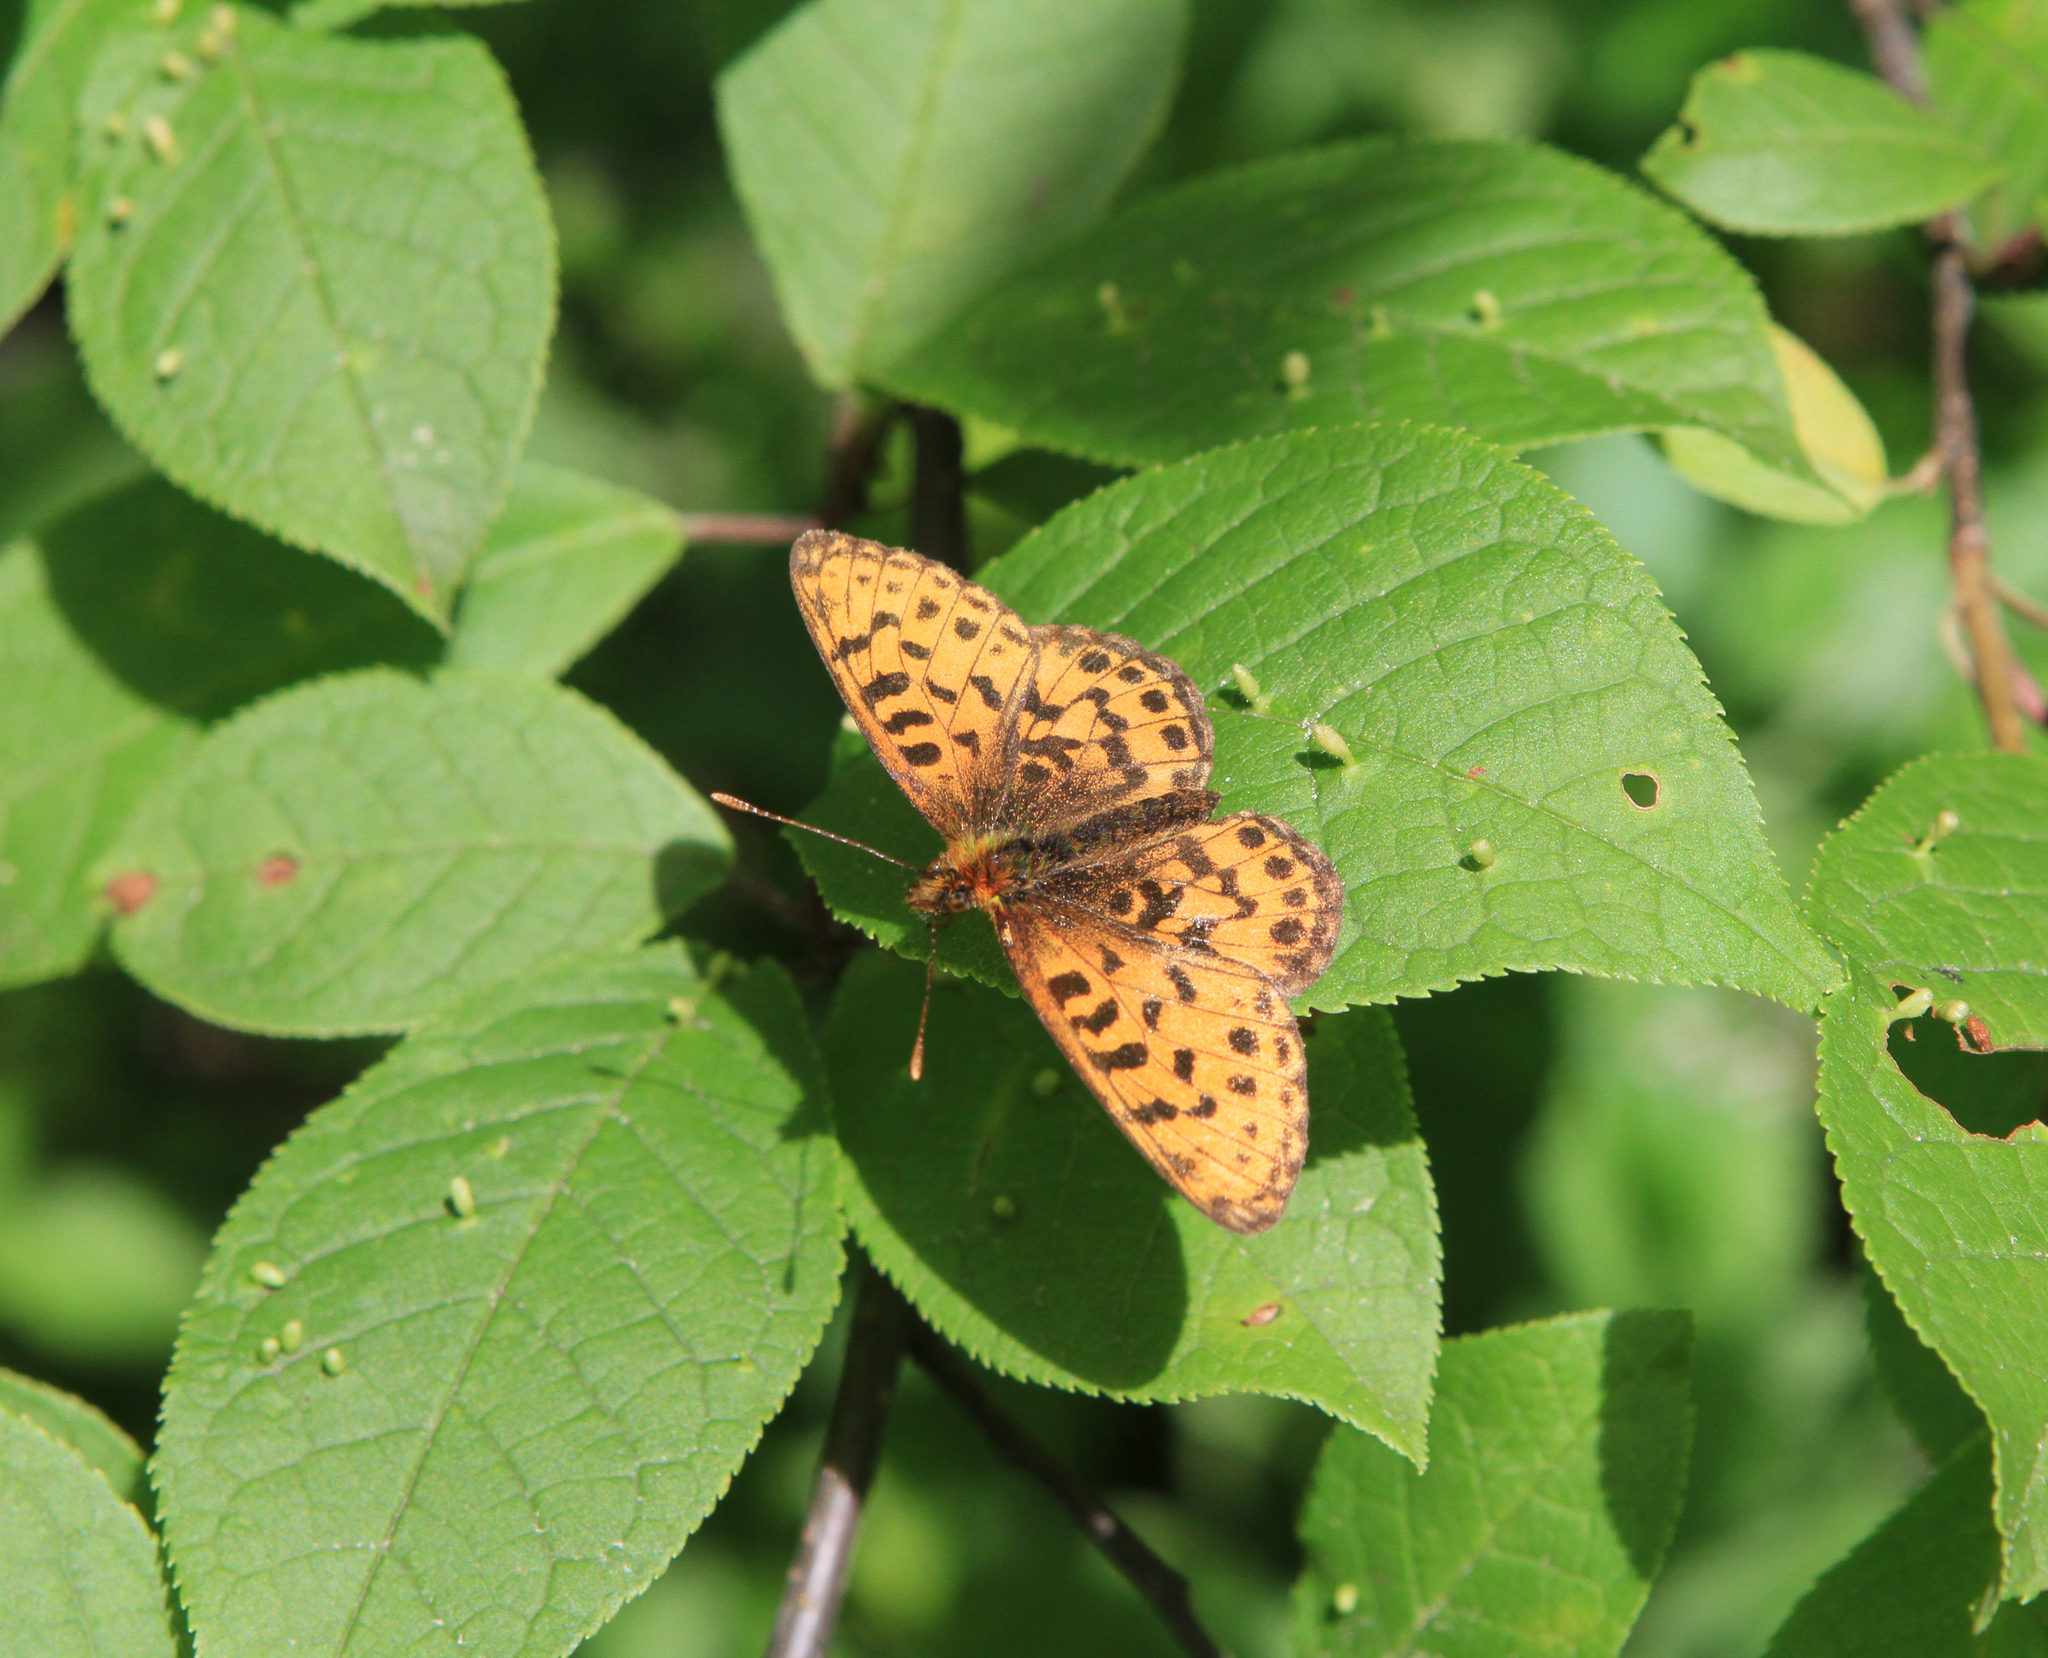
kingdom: Animalia
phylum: Arthropoda
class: Insecta
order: Lepidoptera
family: Nymphalidae
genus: Boloria
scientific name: Boloria thore
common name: Thor's fritillary
